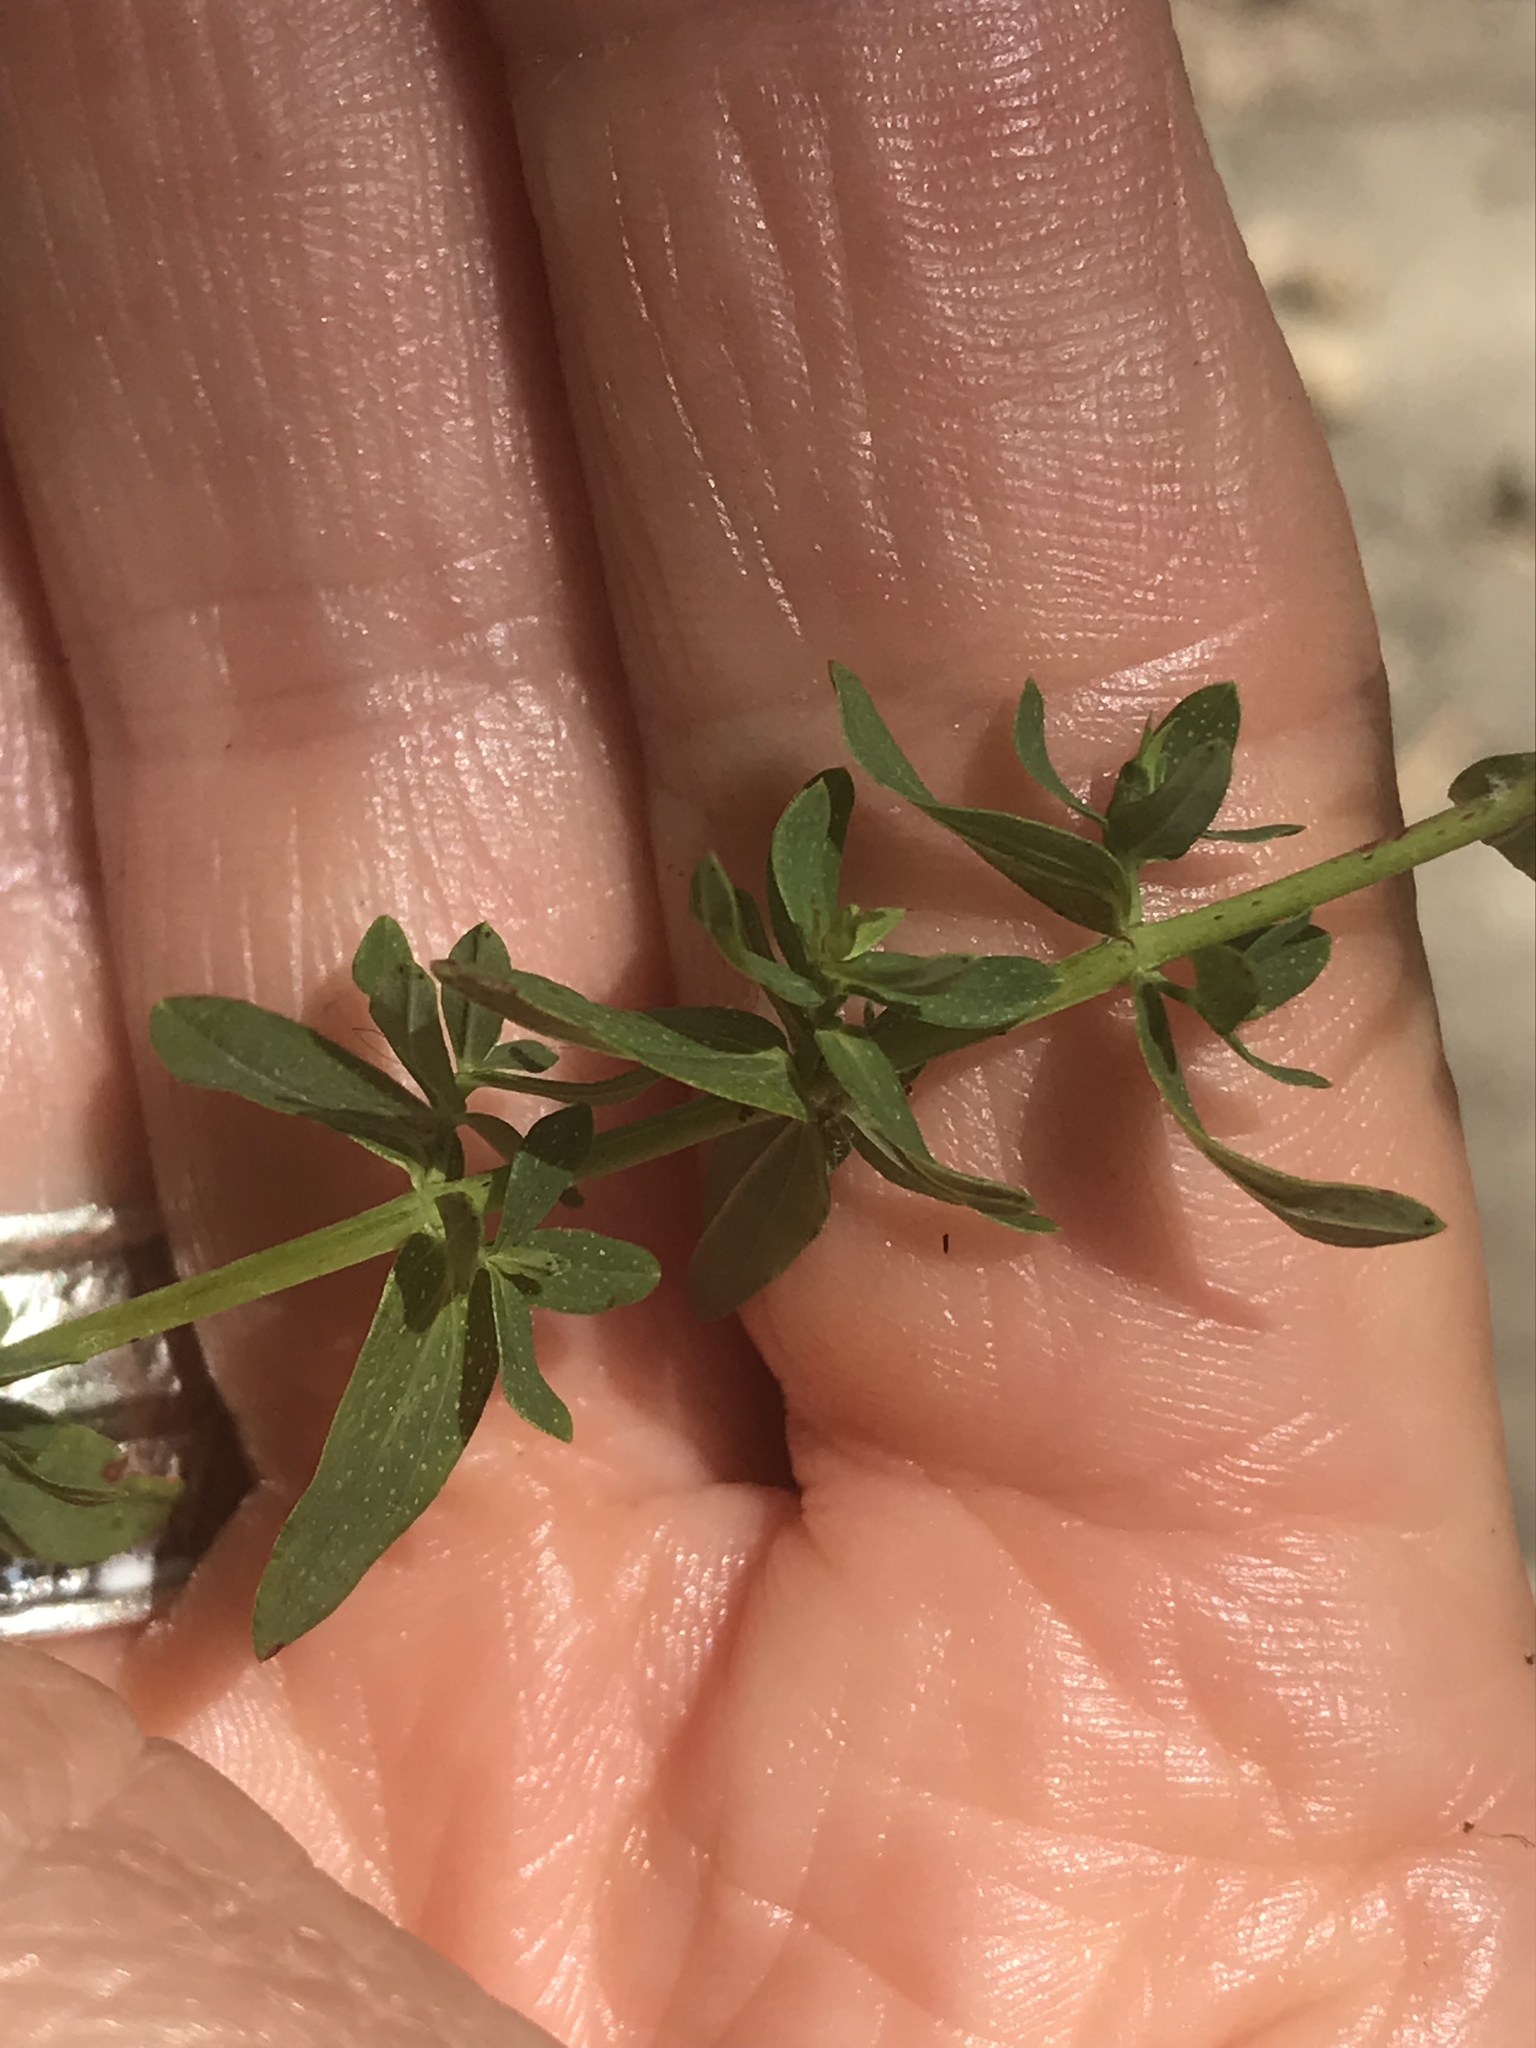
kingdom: Plantae
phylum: Tracheophyta
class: Magnoliopsida
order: Malpighiales
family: Hypericaceae
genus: Hypericum
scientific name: Hypericum perforatum
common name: Common st. johnswort
